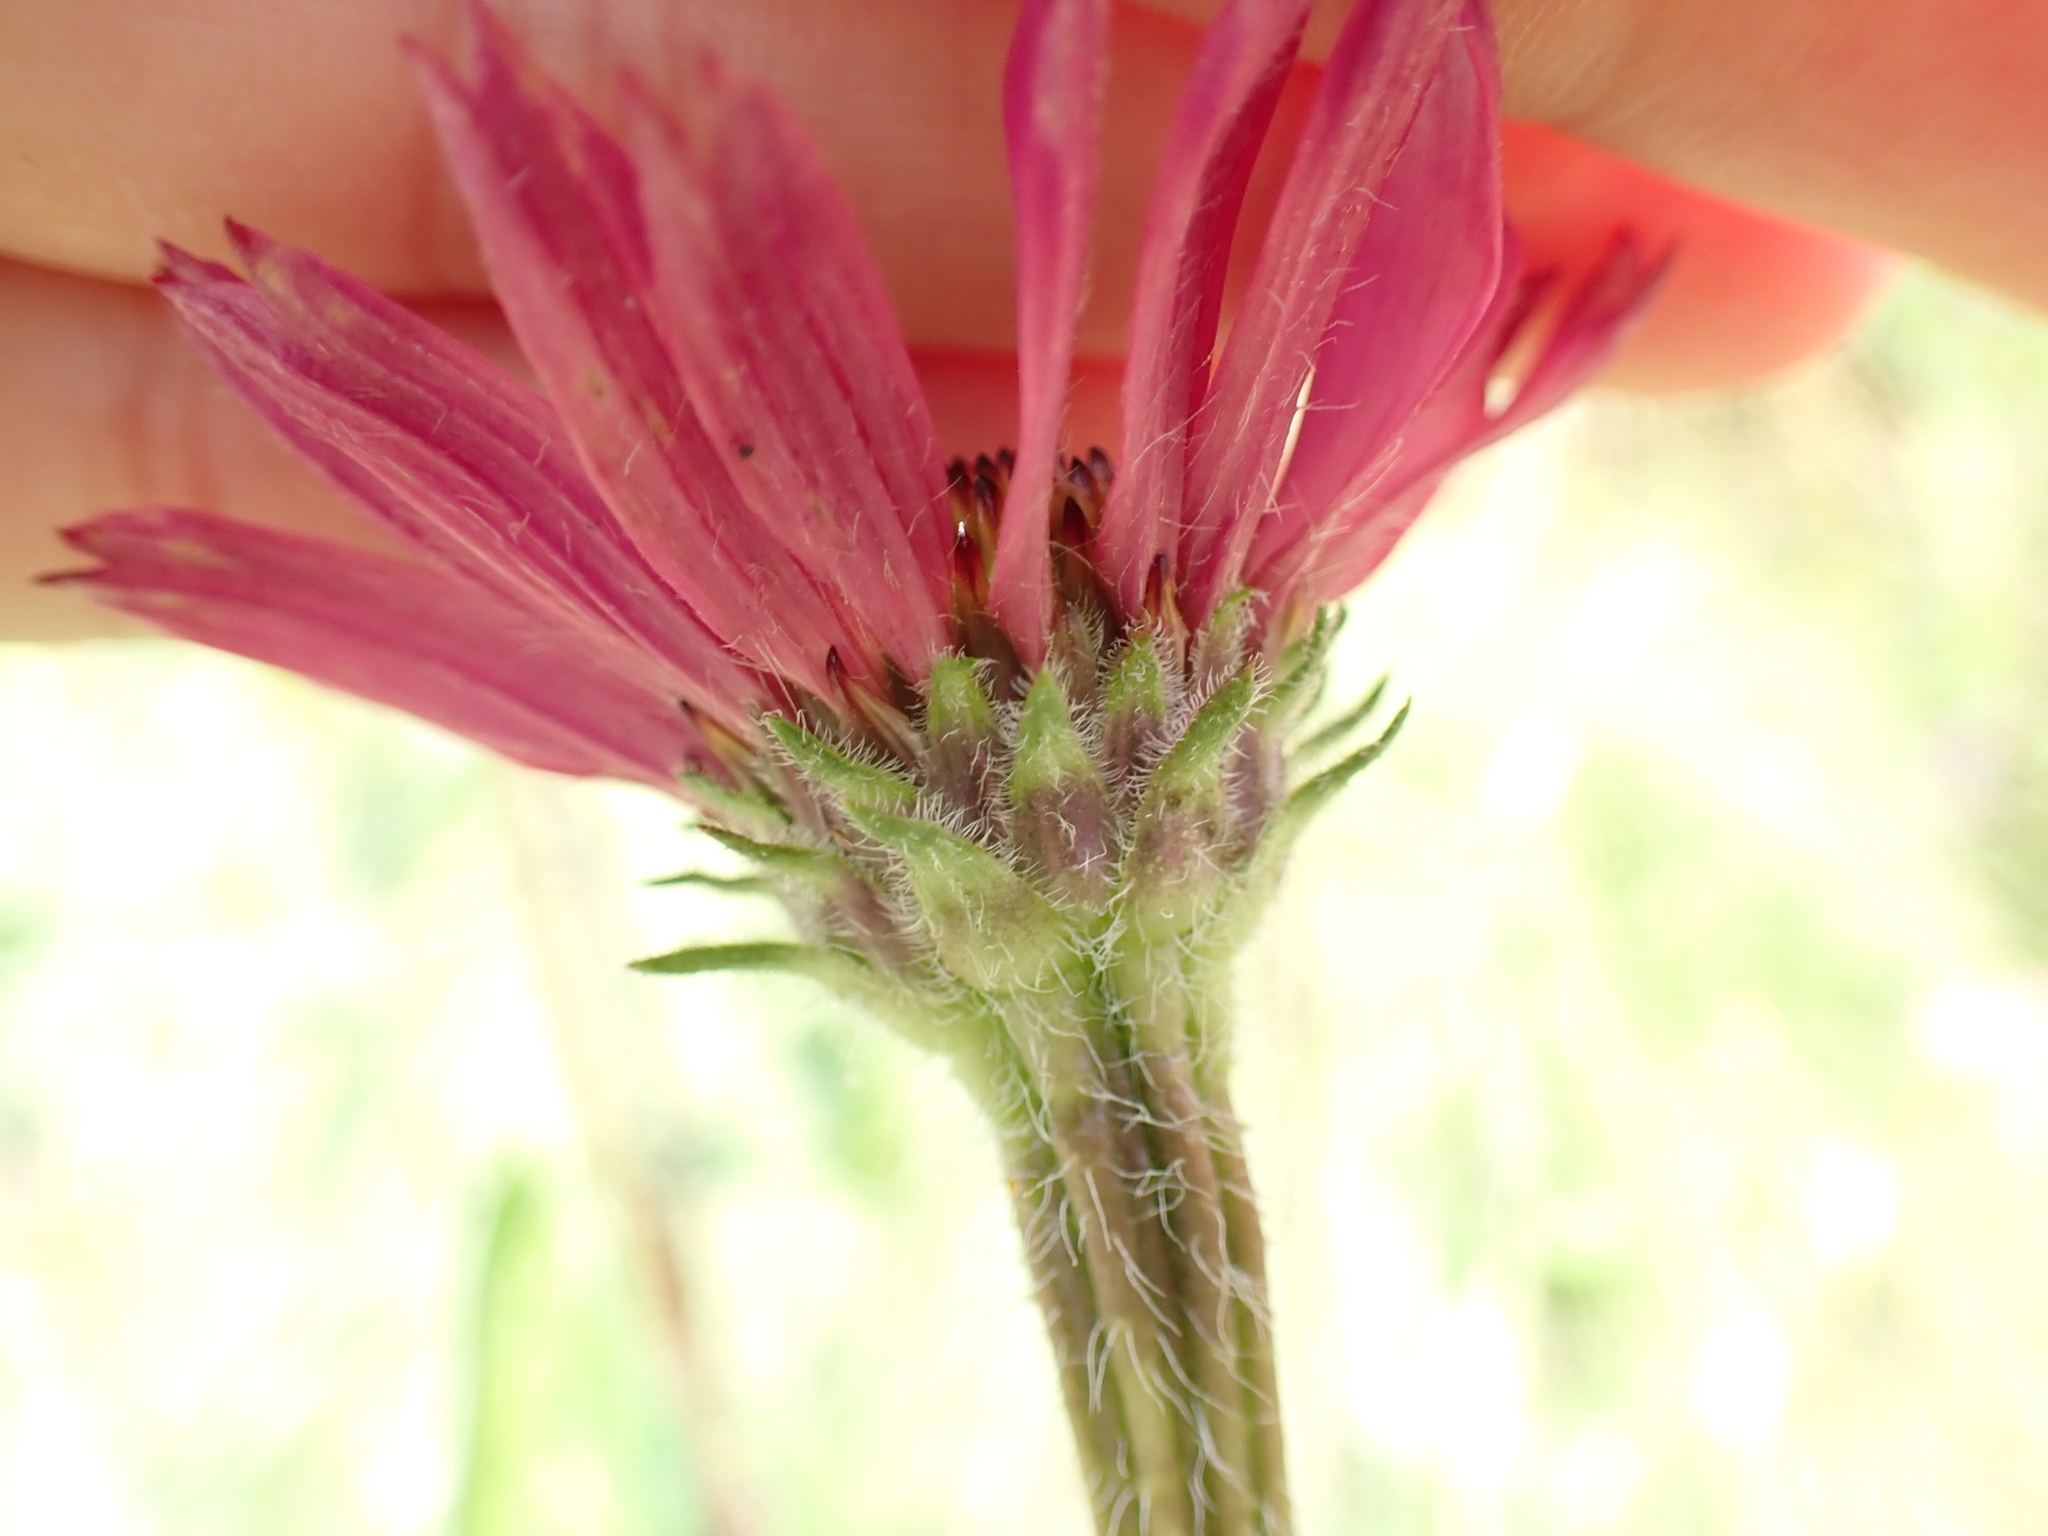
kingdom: Plantae
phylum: Tracheophyta
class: Magnoliopsida
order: Asterales
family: Asteraceae
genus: Echinacea
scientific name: Echinacea purpurea
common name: Broad-leaved purple coneflower
